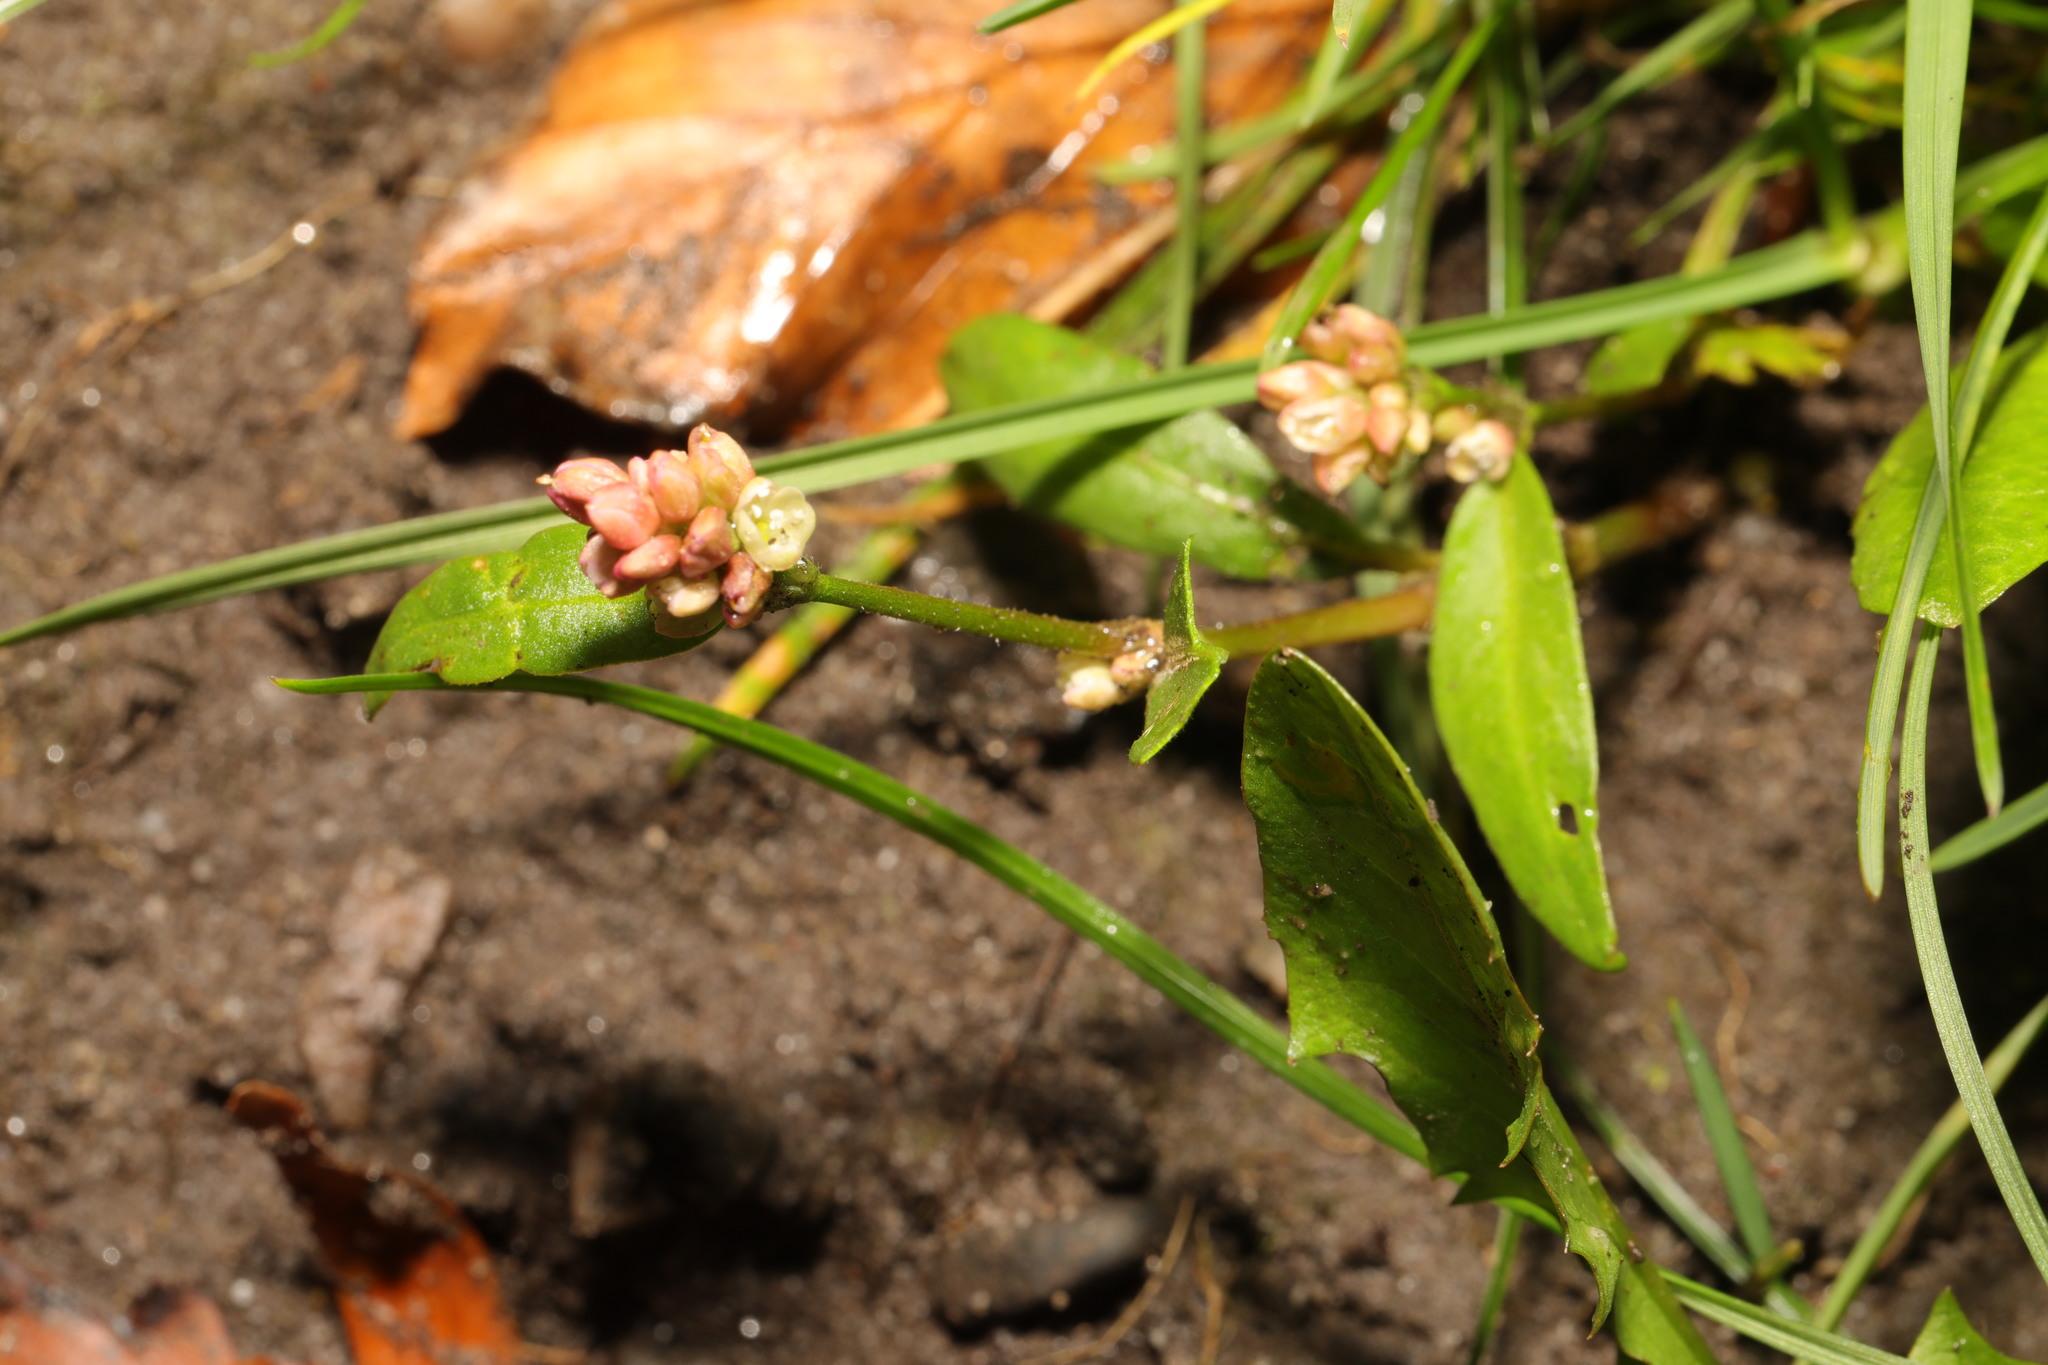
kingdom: Plantae
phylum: Tracheophyta
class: Magnoliopsida
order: Caryophyllales
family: Polygonaceae
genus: Persicaria
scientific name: Persicaria maculosa
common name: Redshank
